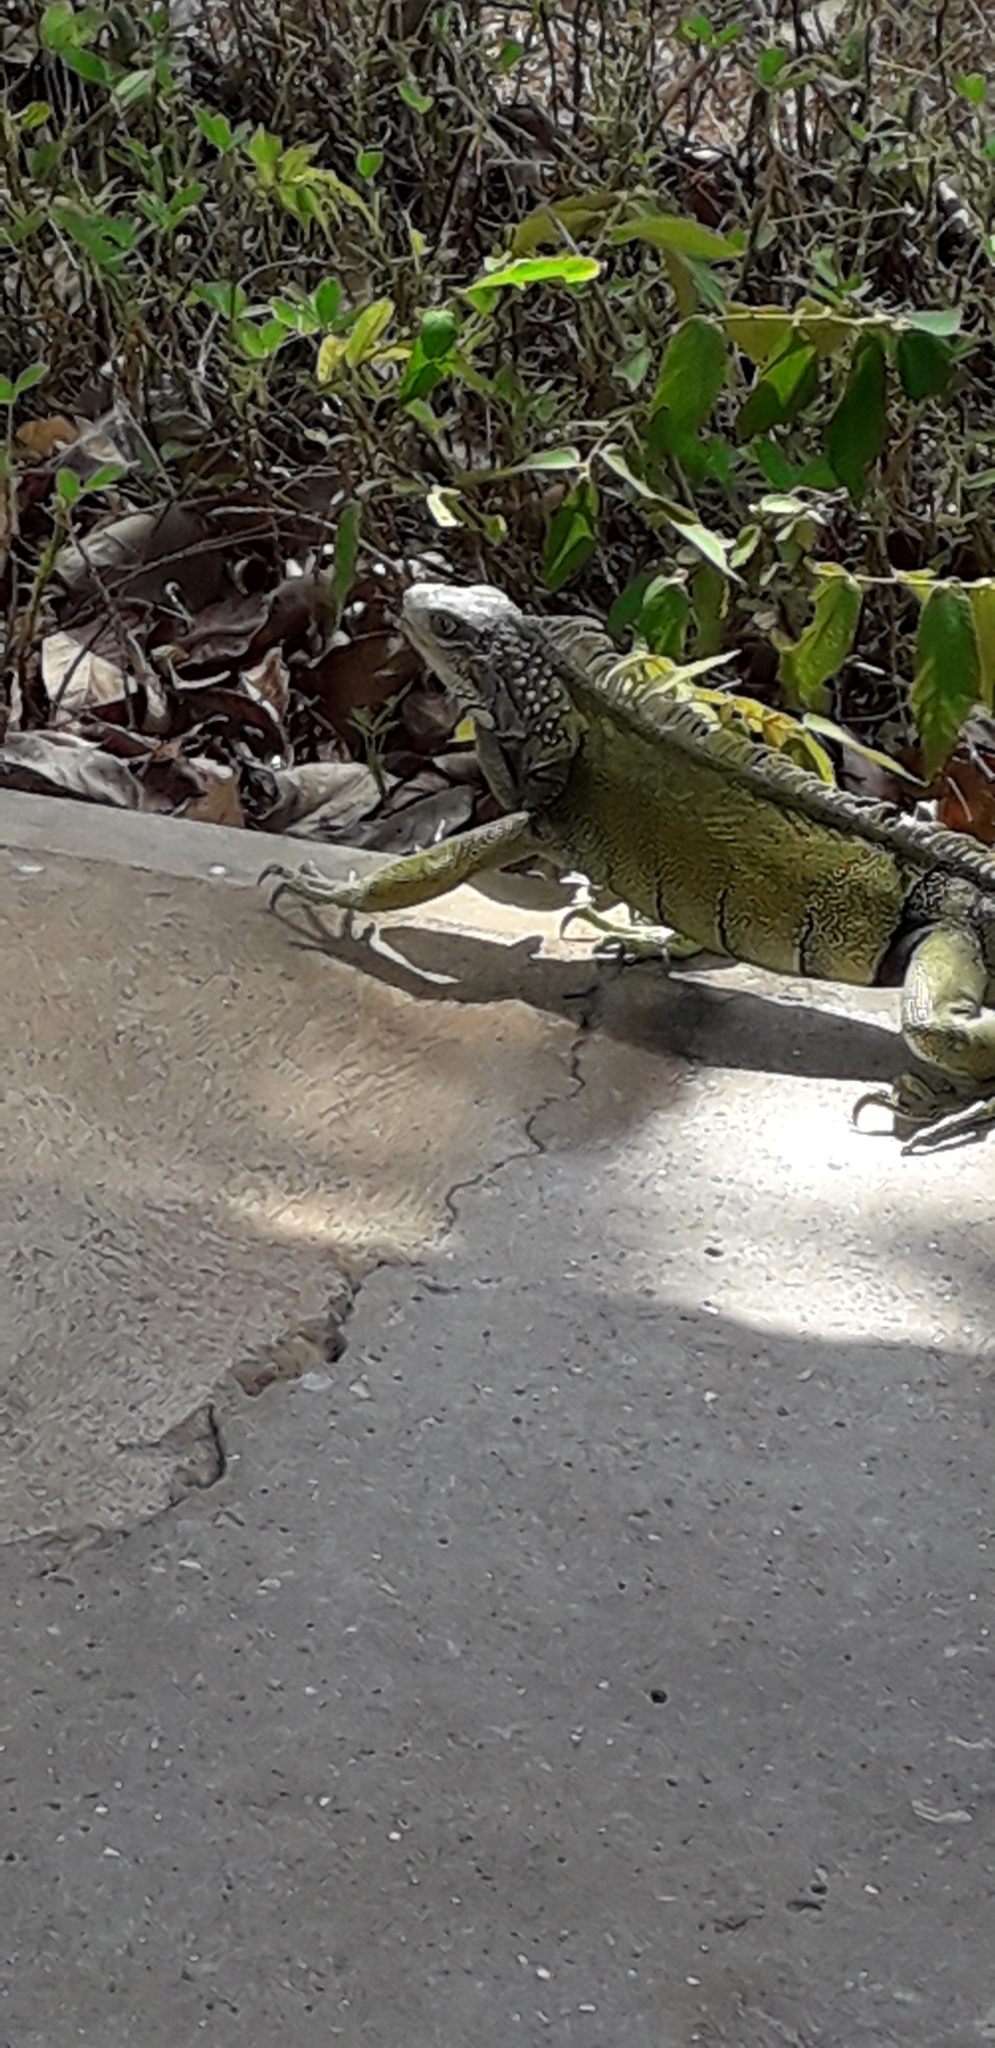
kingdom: Animalia
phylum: Chordata
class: Squamata
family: Iguanidae
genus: Iguana
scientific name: Iguana iguana
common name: Green iguana
